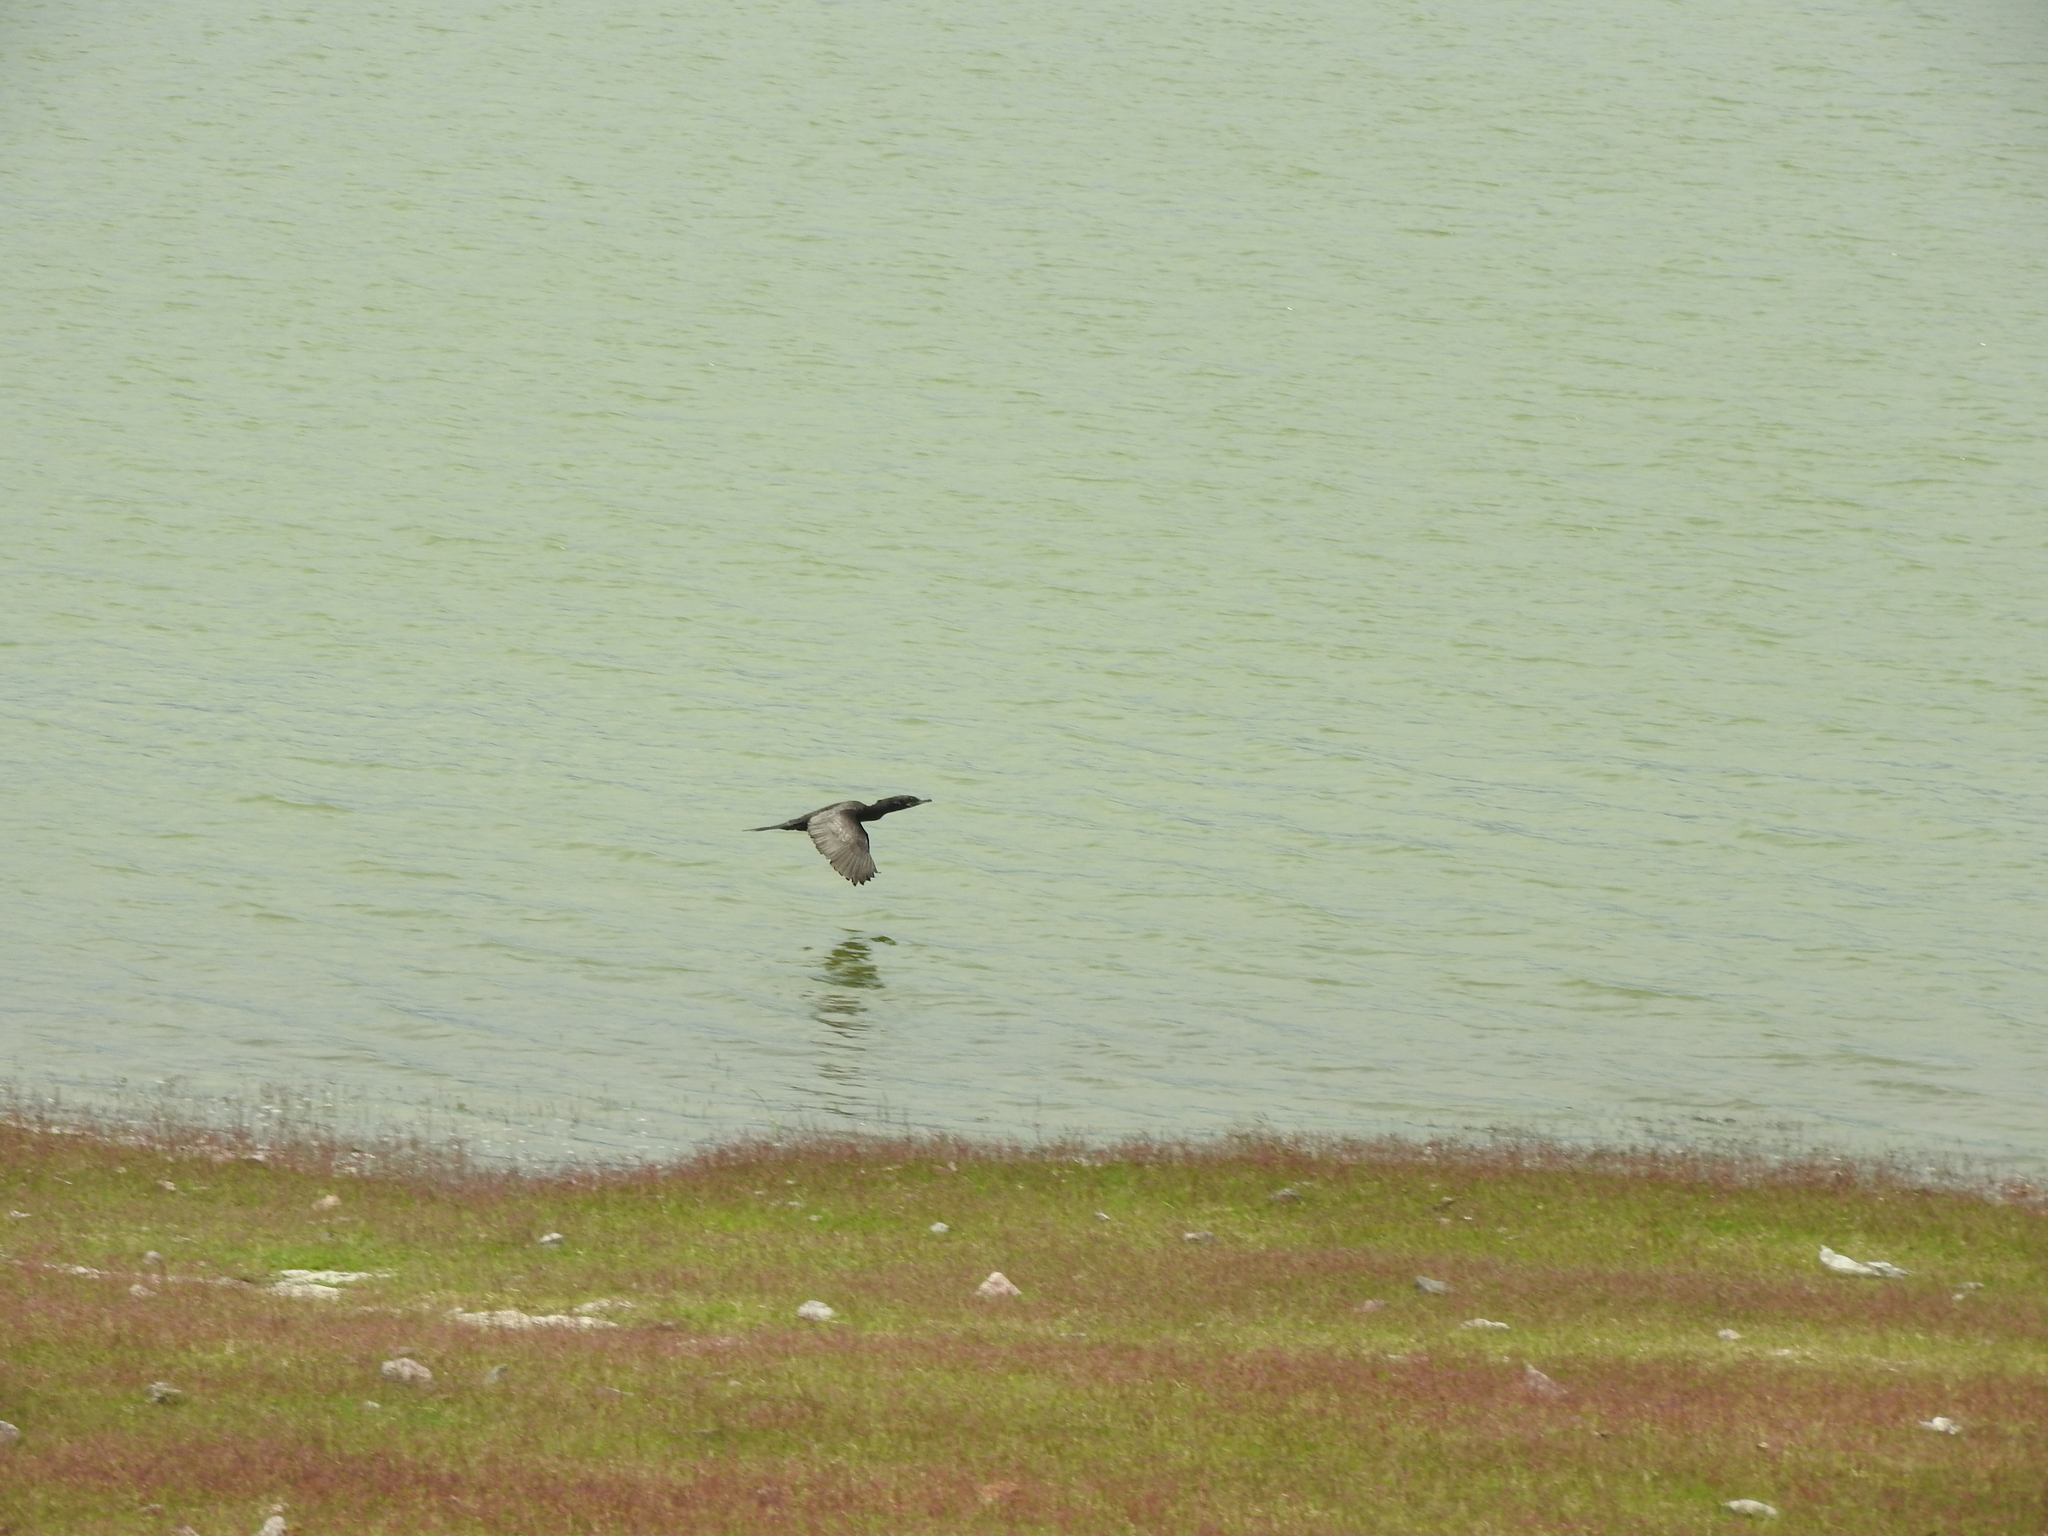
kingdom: Animalia
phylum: Chordata
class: Aves
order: Suliformes
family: Phalacrocoracidae
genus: Phalacrocorax
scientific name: Phalacrocorax brasilianus
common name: Neotropic cormorant
